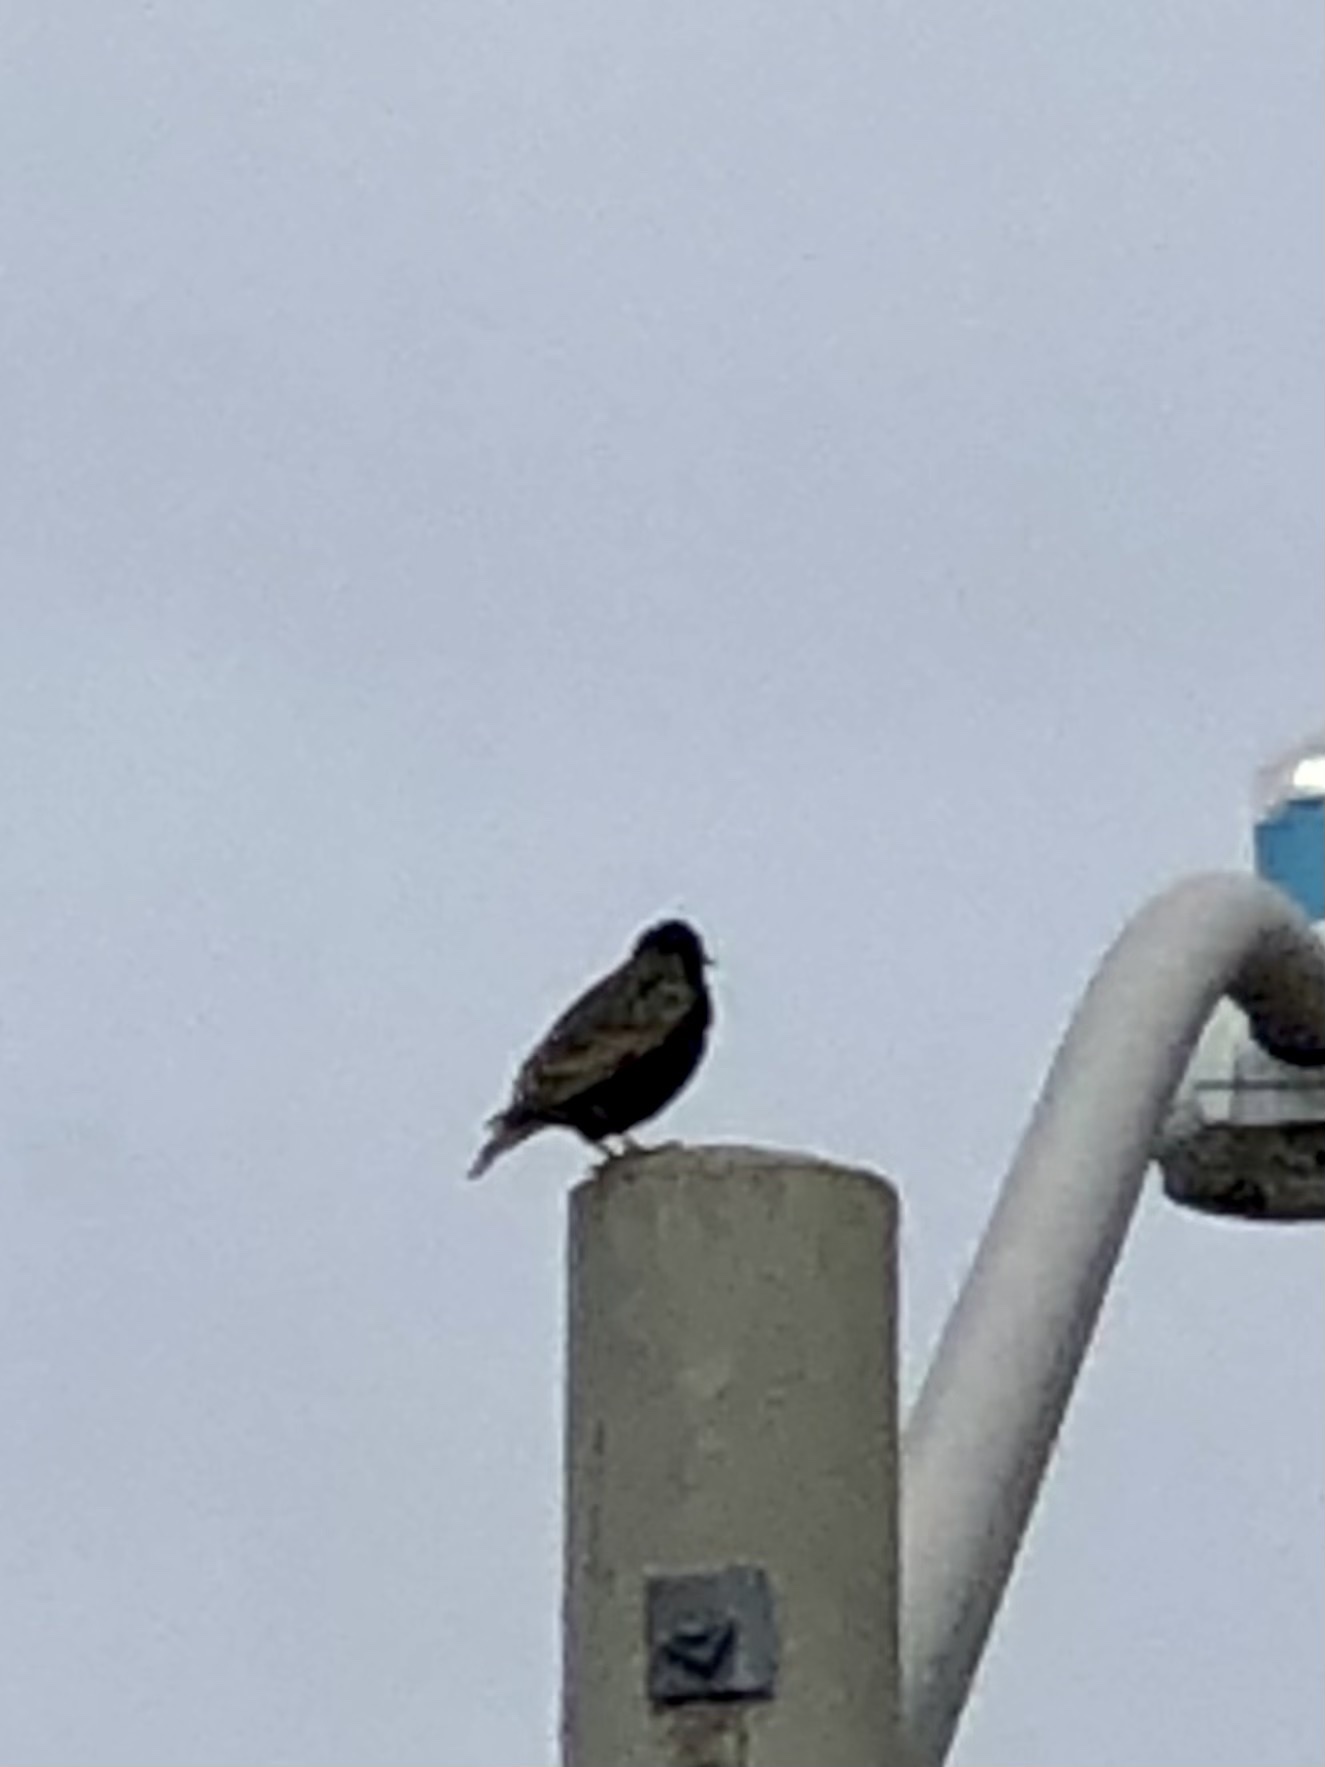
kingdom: Animalia
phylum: Chordata
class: Aves
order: Passeriformes
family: Sturnidae
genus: Sturnus
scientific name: Sturnus vulgaris
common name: Common starling
